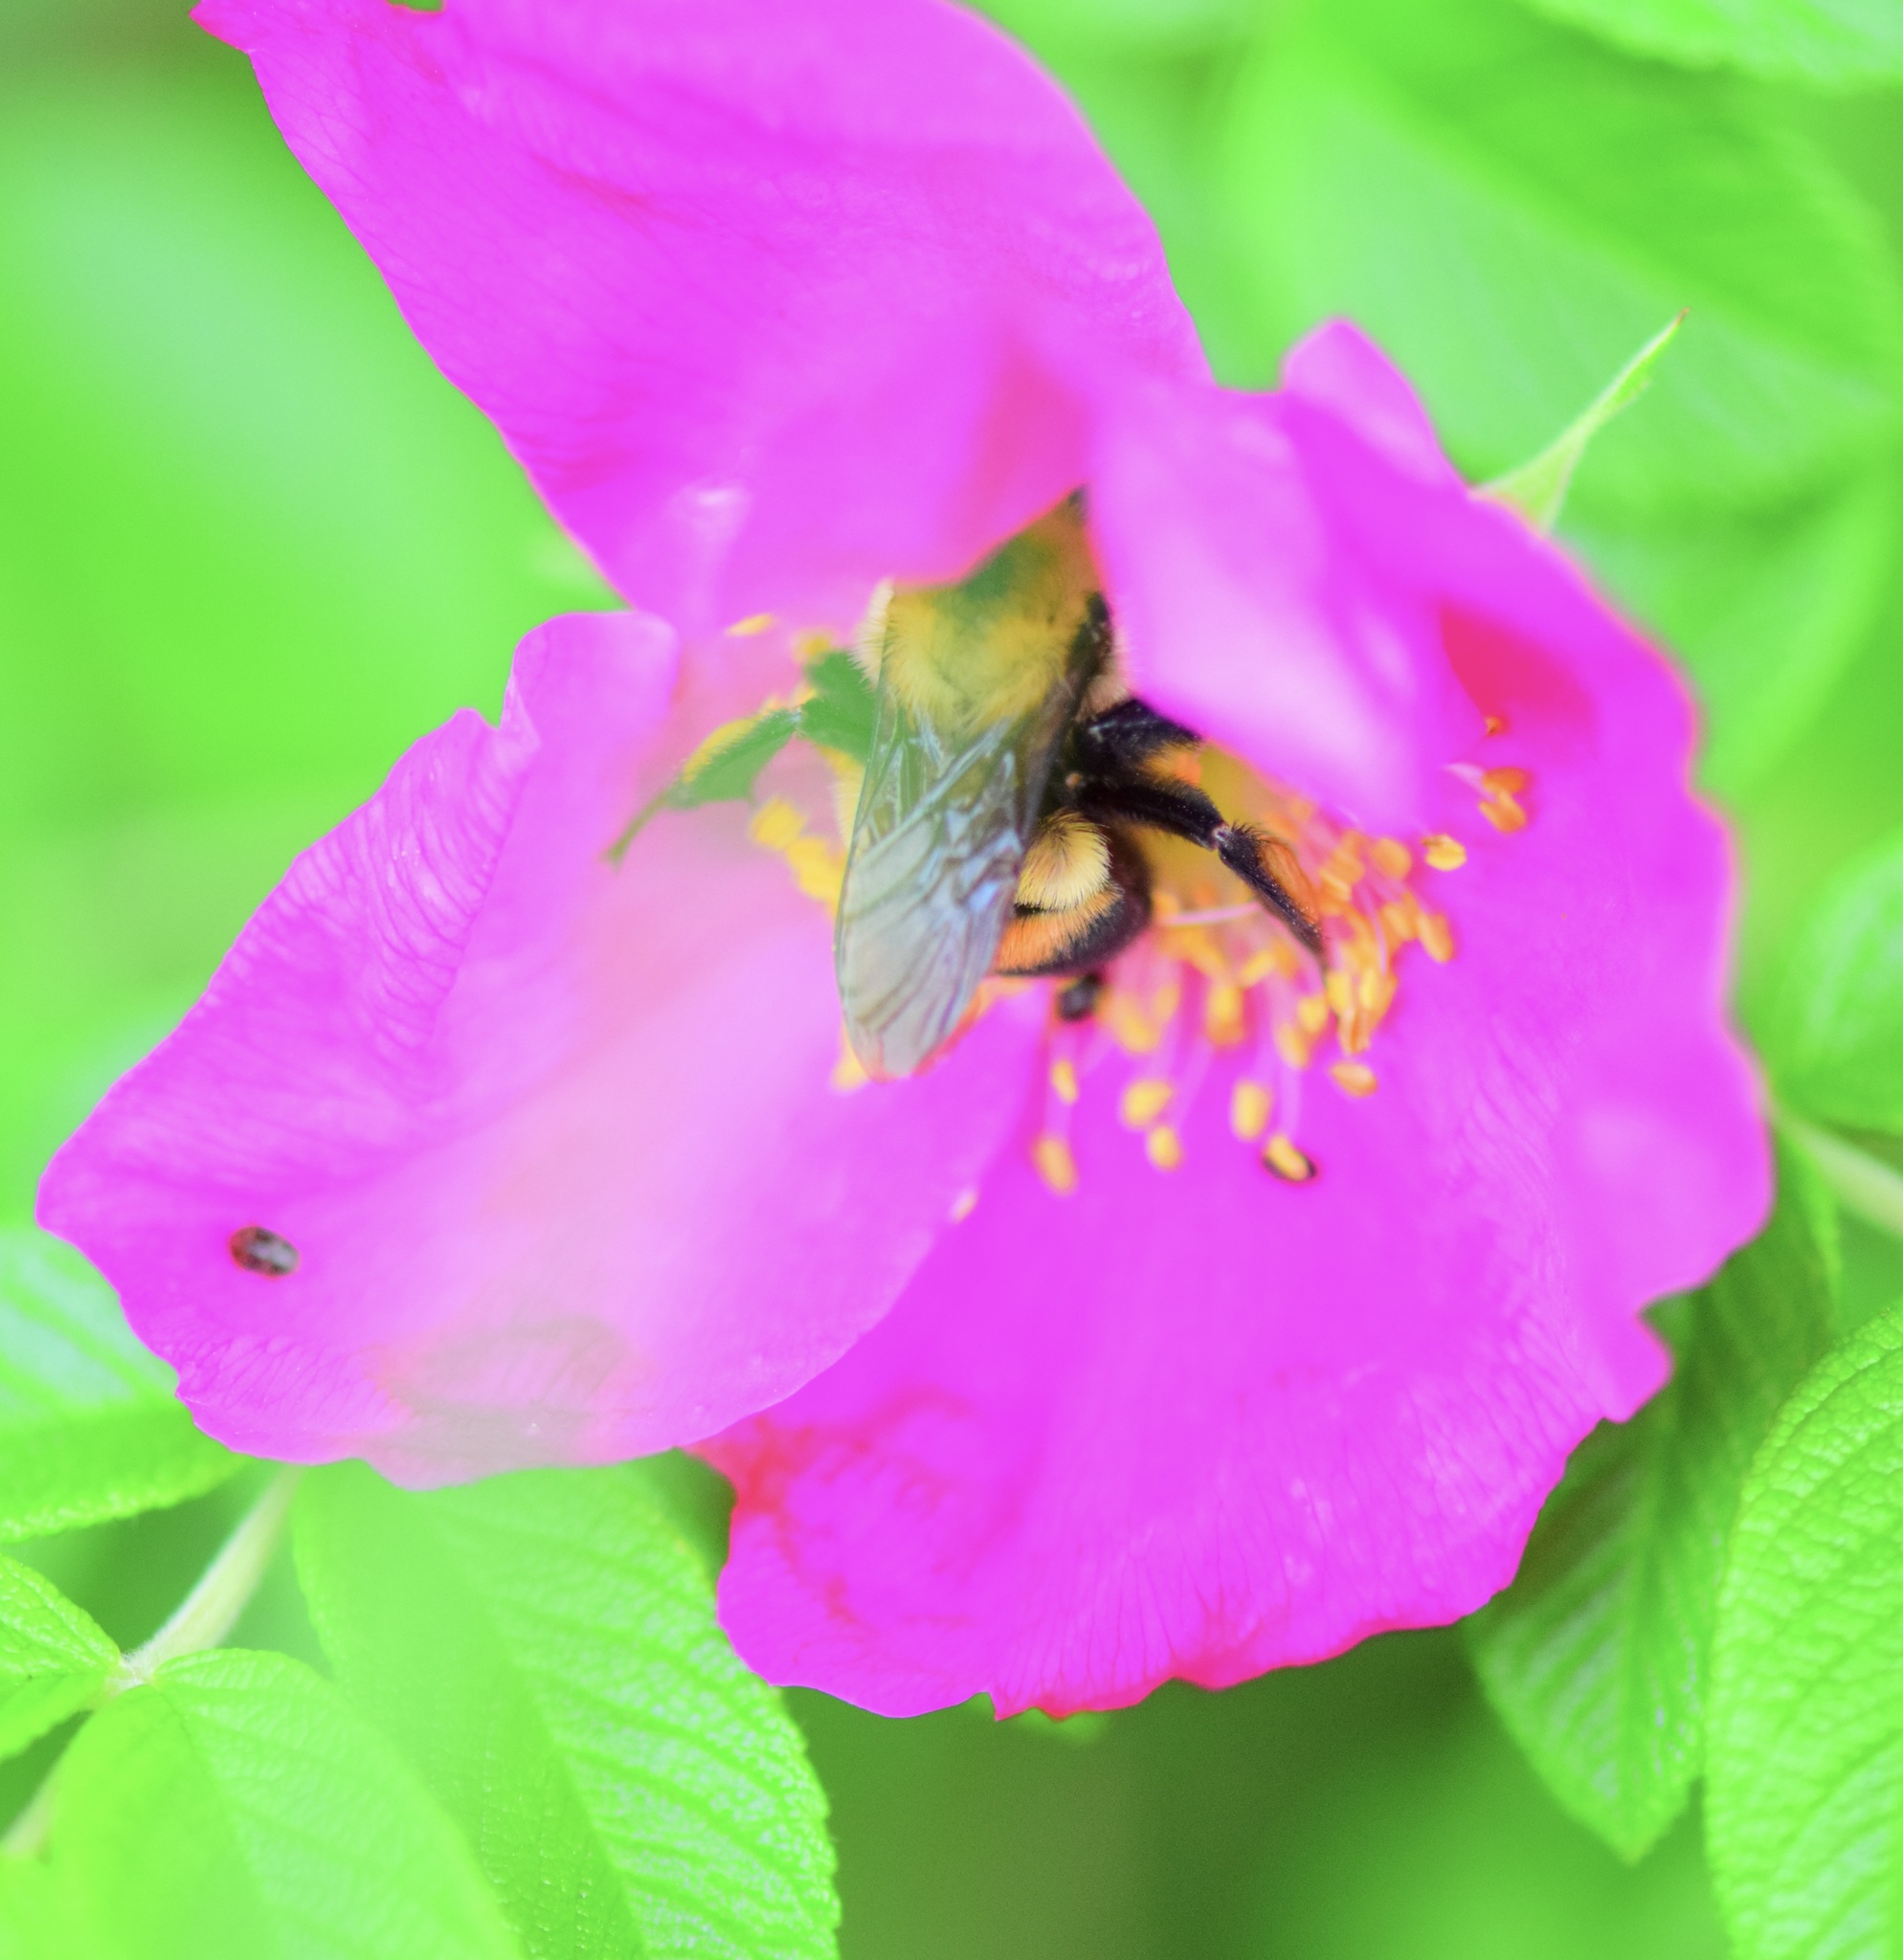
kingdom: Animalia
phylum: Arthropoda
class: Insecta
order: Hymenoptera
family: Apidae
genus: Bombus
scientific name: Bombus griseocollis
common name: Brown-belted bumble bee
